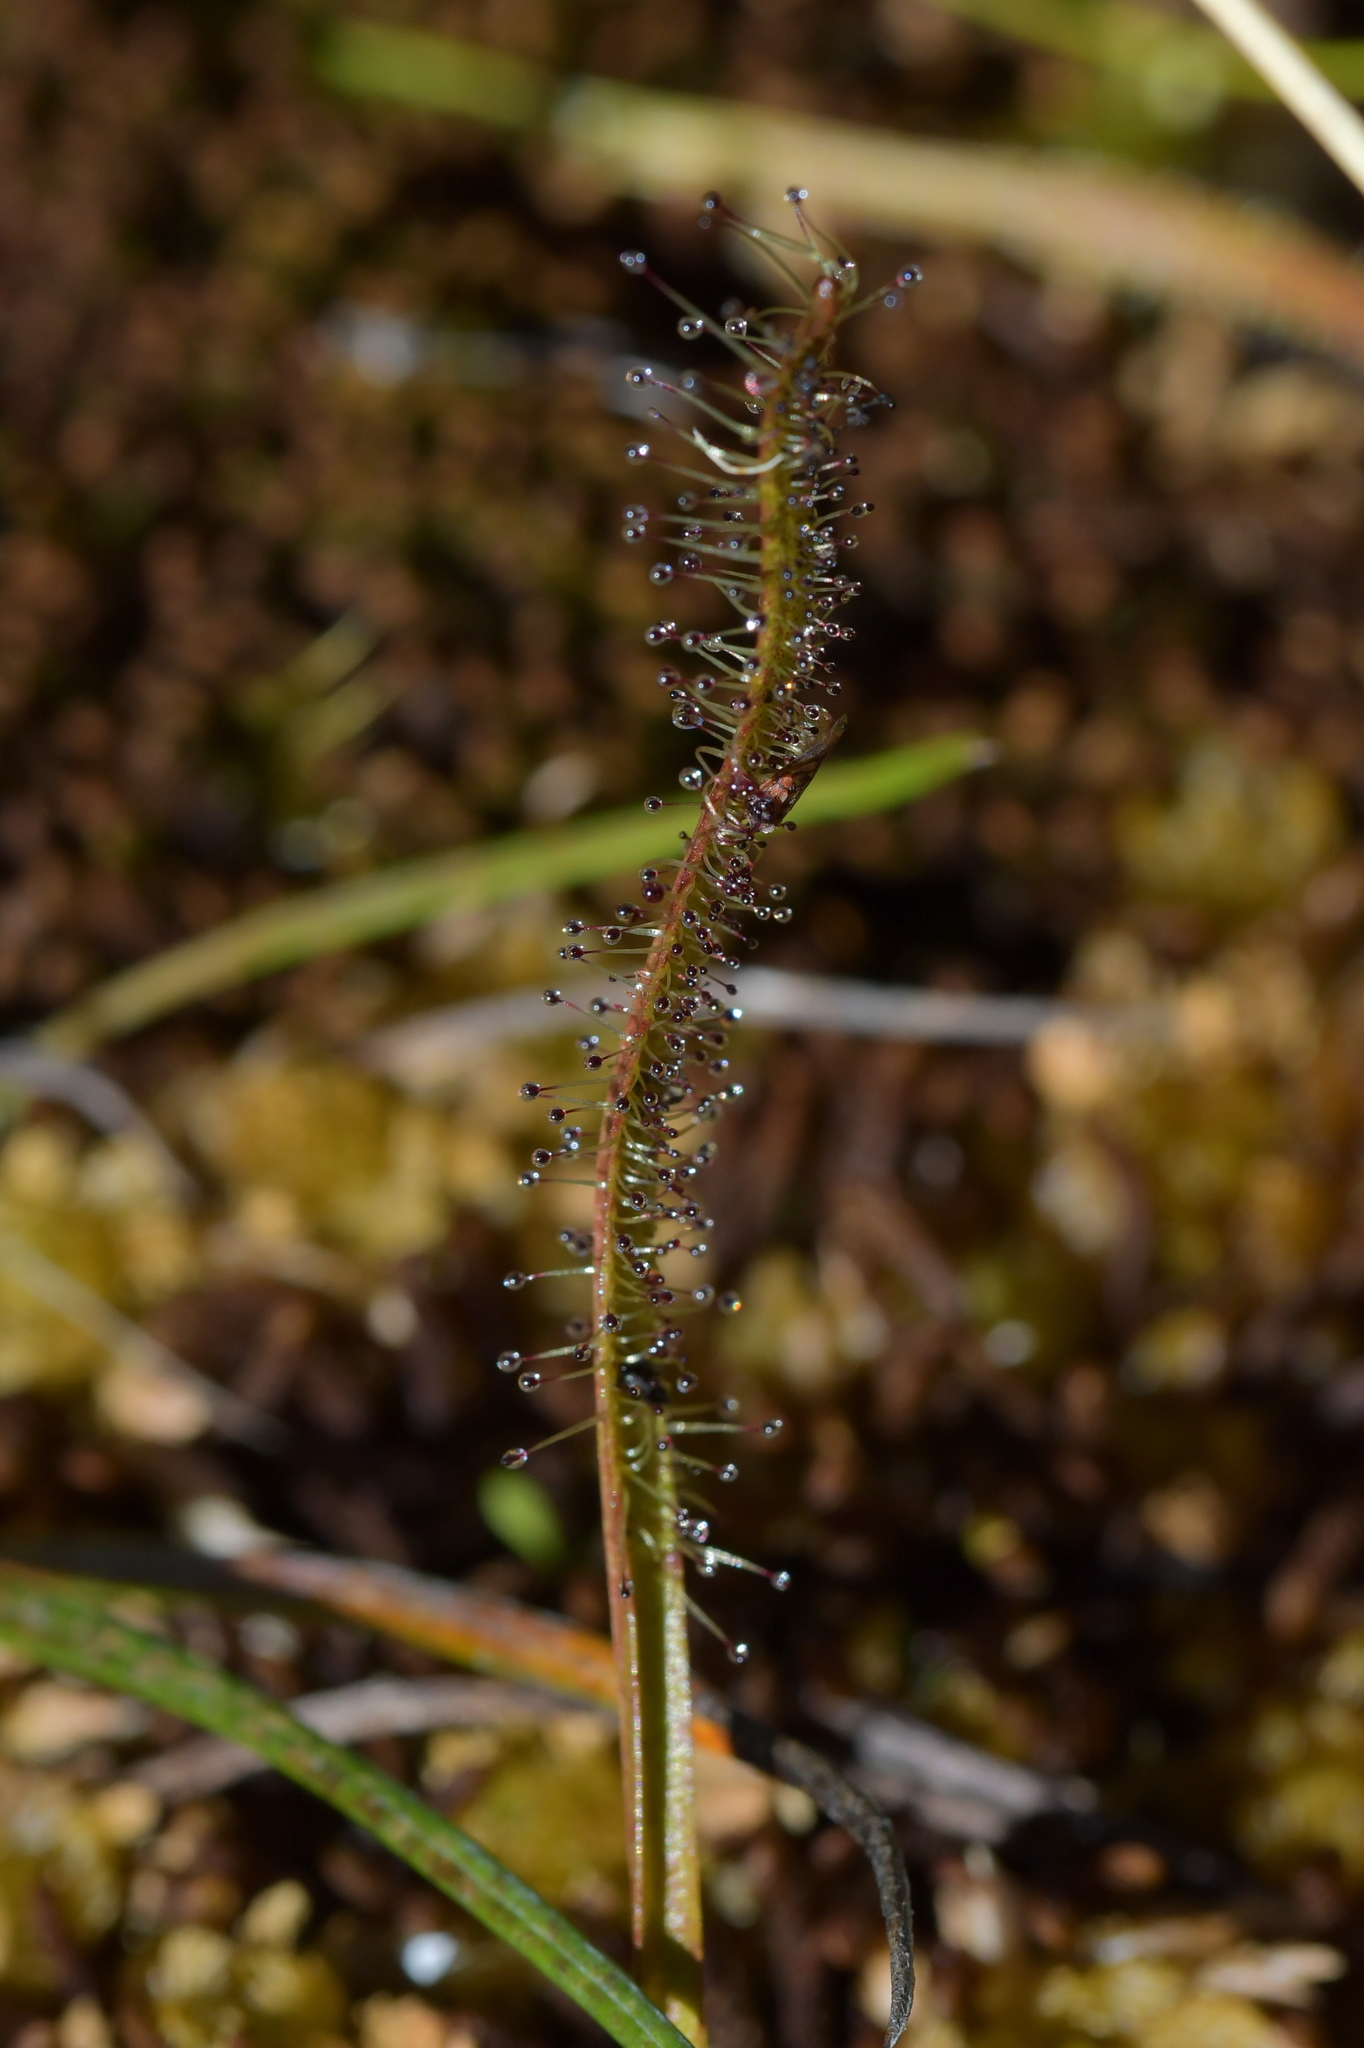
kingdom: Plantae
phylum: Tracheophyta
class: Magnoliopsida
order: Caryophyllales
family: Droseraceae
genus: Drosera
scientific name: Drosera arcturi
